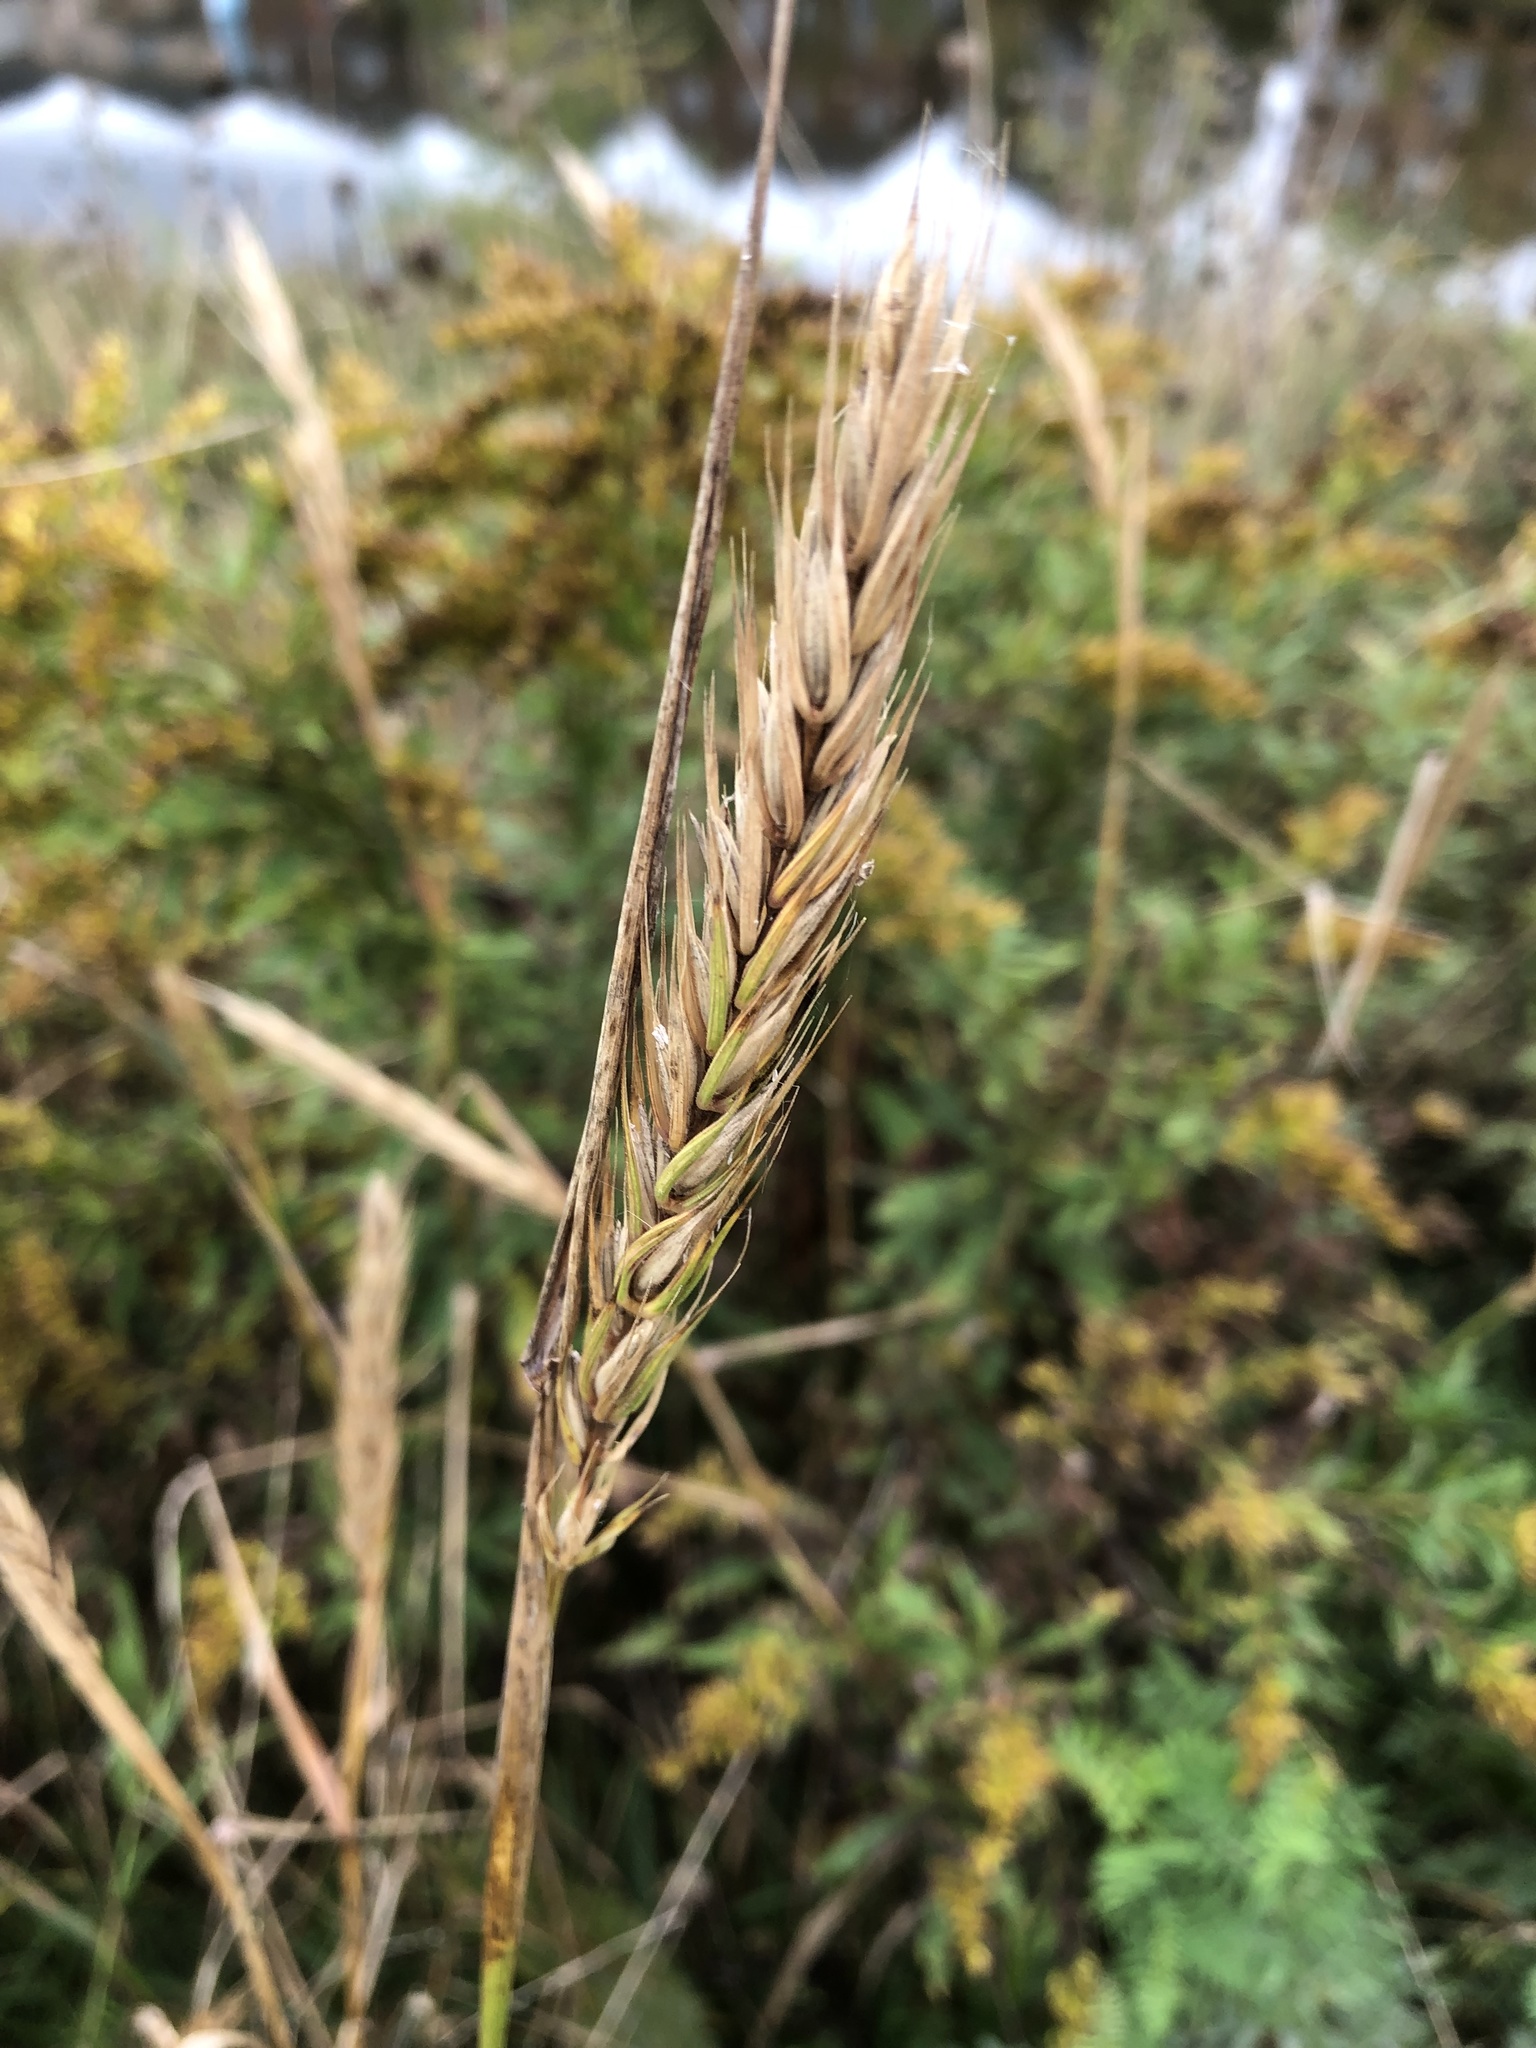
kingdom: Plantae
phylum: Tracheophyta
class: Liliopsida
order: Poales
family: Poaceae
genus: Elymus
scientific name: Elymus virginicus
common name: Common eastern wildrye
